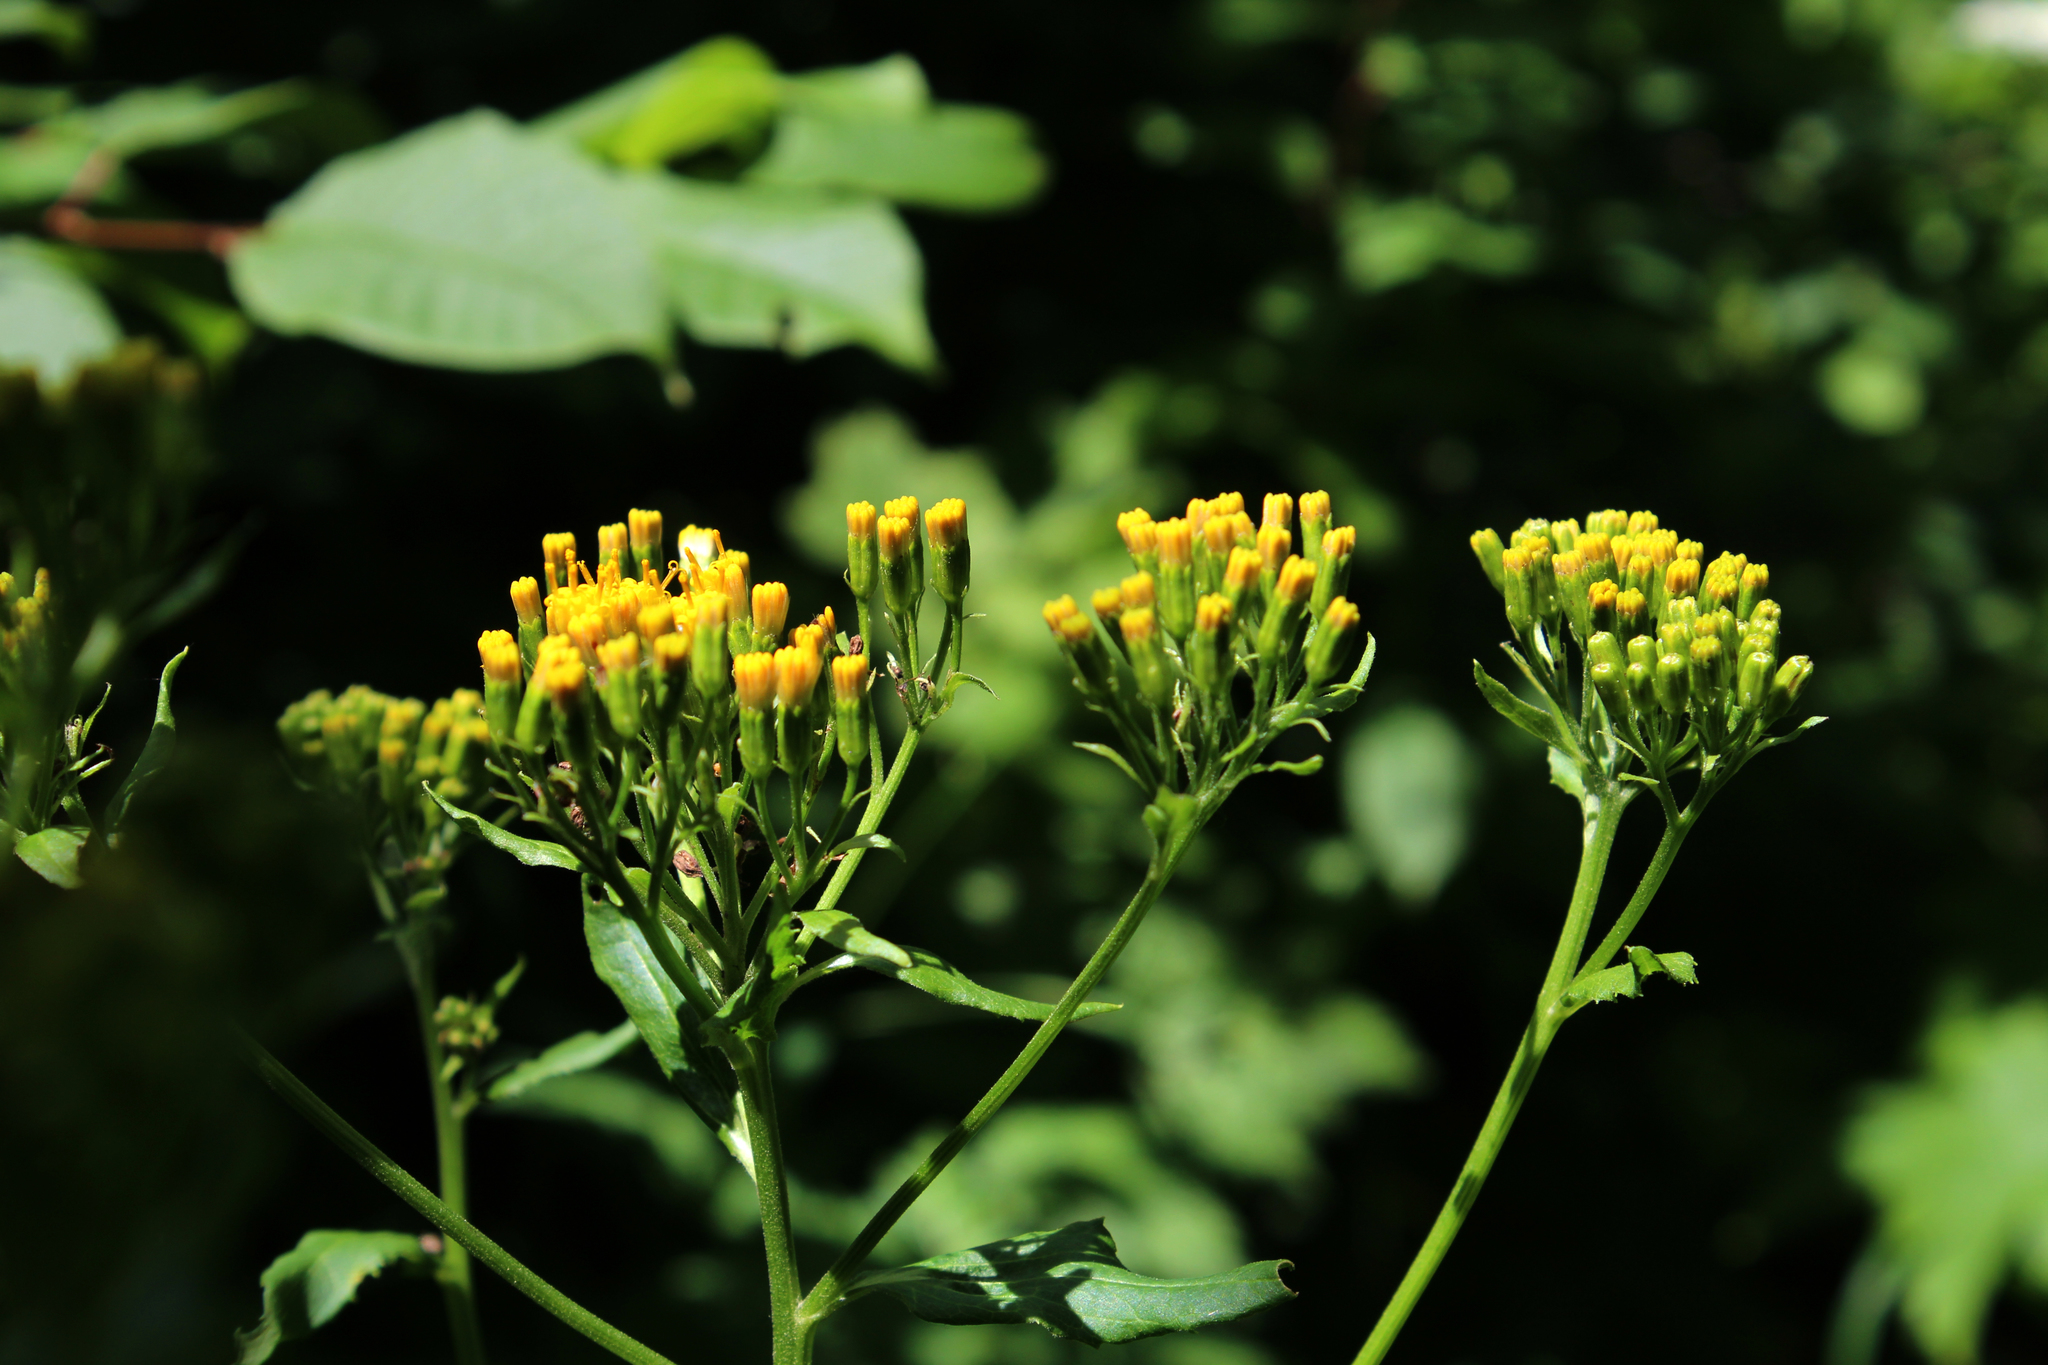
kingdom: Plantae
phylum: Tracheophyta
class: Magnoliopsida
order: Asterales
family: Asteraceae
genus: Caucasalia
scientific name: Caucasalia macrophylla
